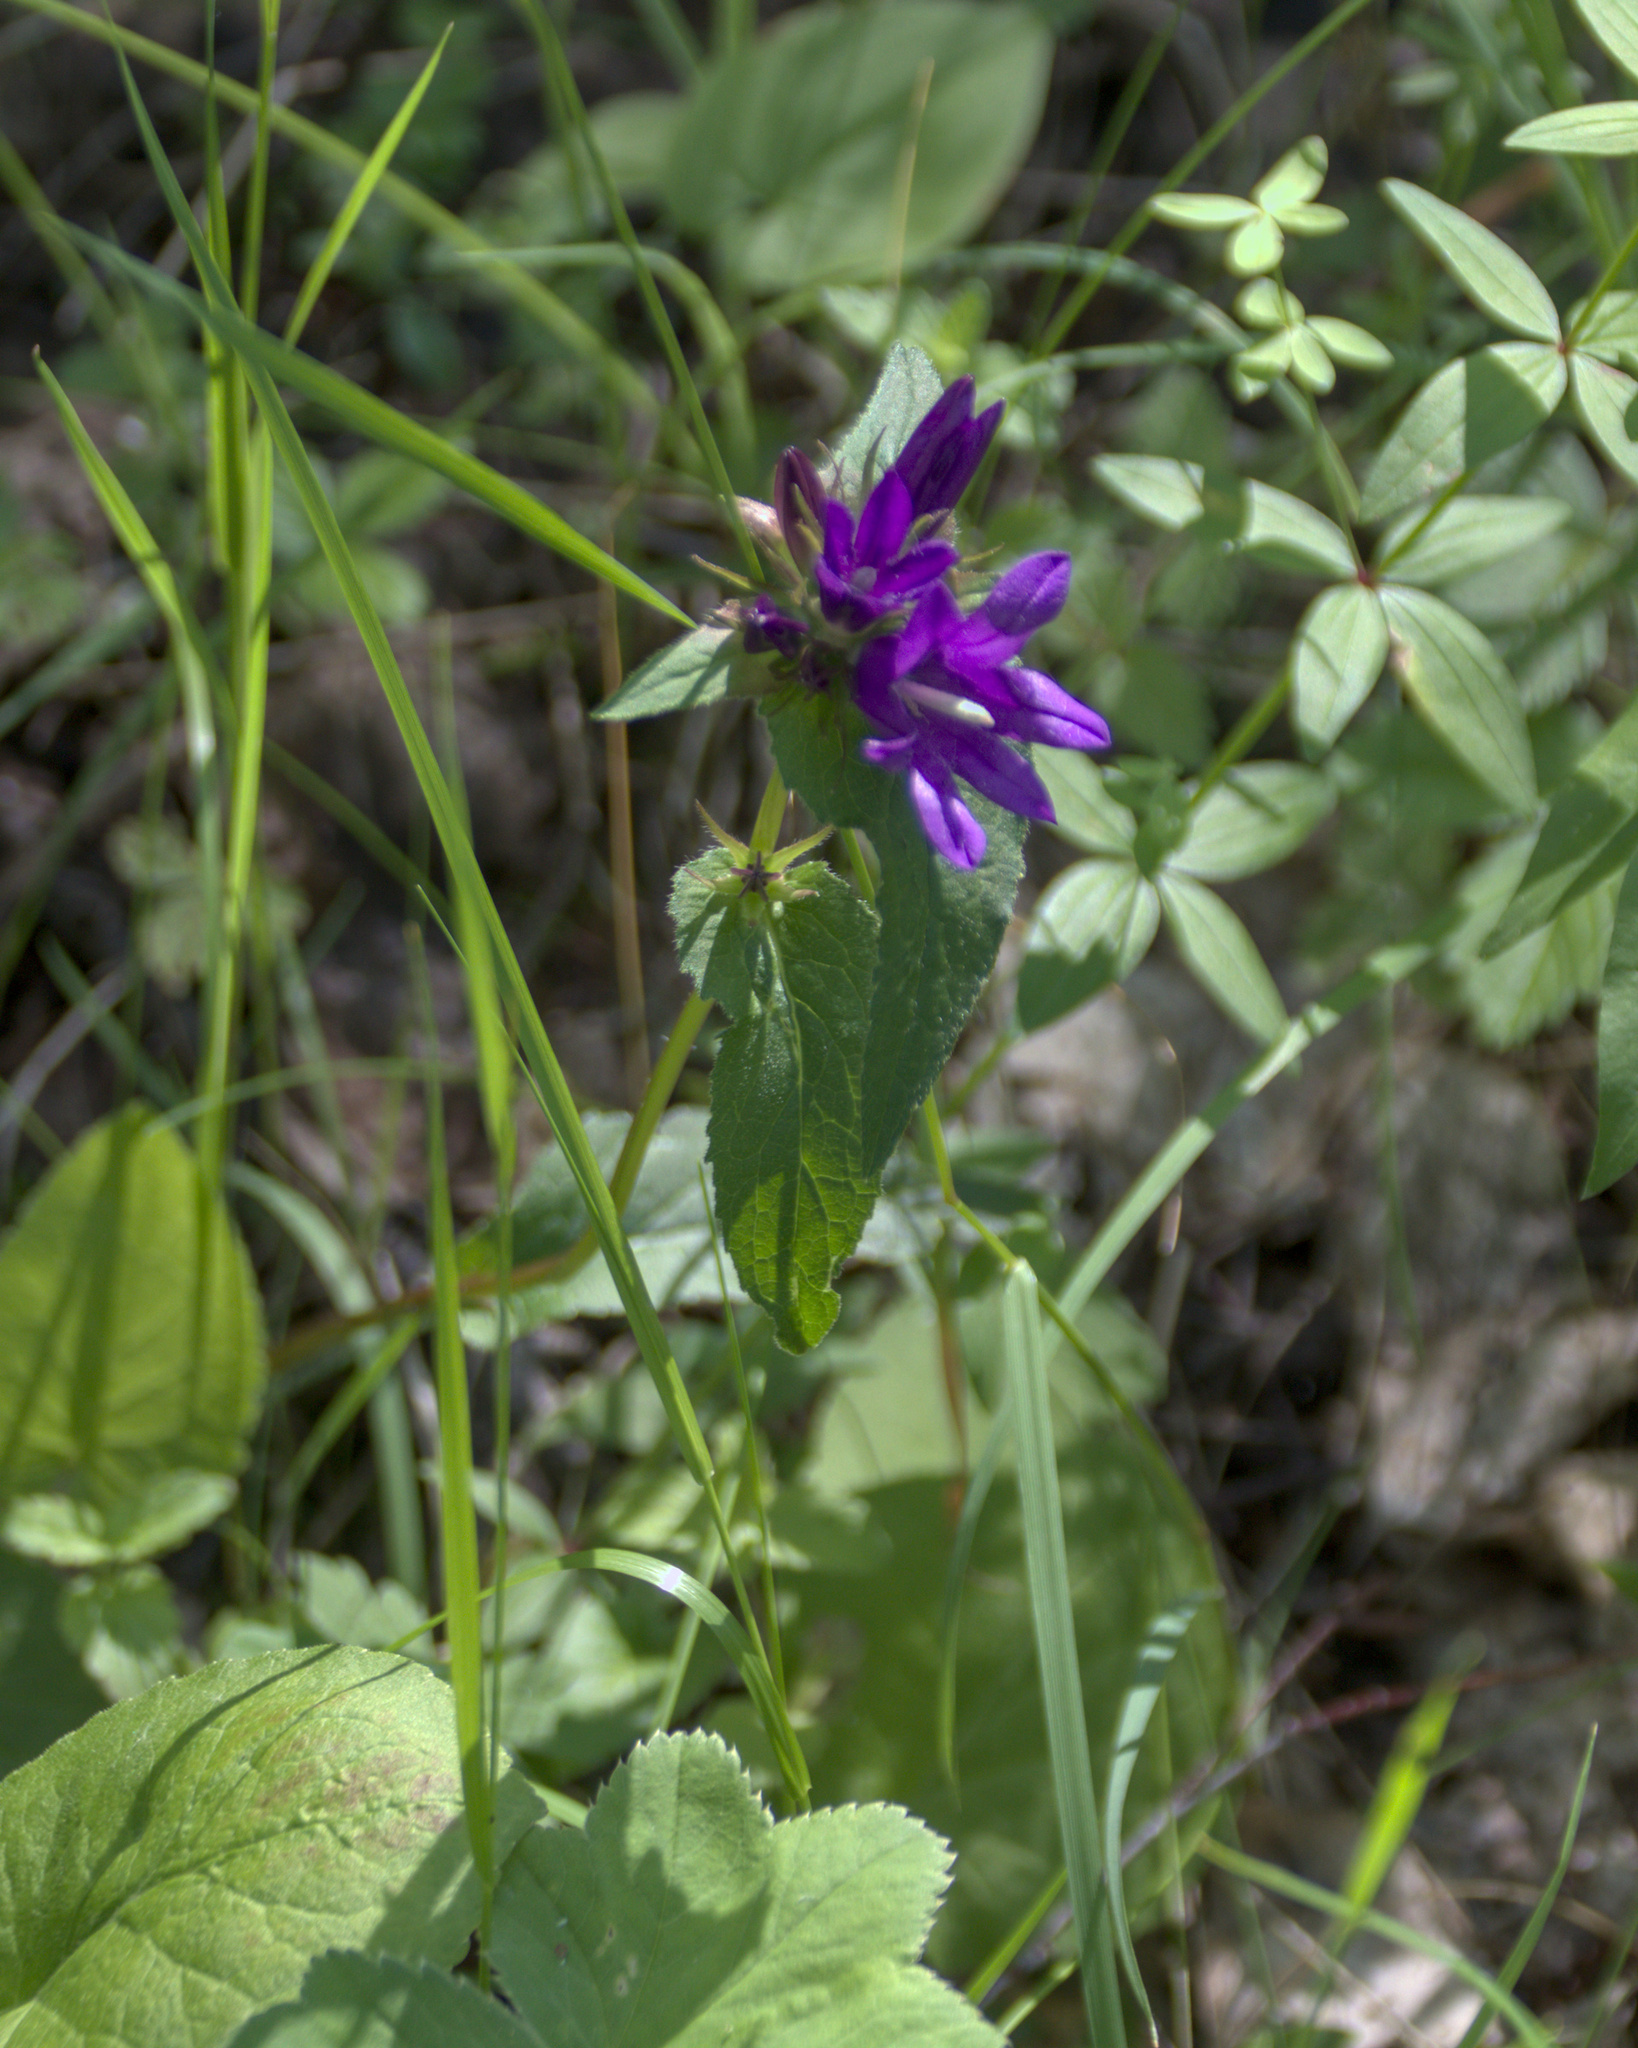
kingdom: Plantae
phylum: Tracheophyta
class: Magnoliopsida
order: Asterales
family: Campanulaceae
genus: Campanula
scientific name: Campanula glomerata
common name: Clustered bellflower
